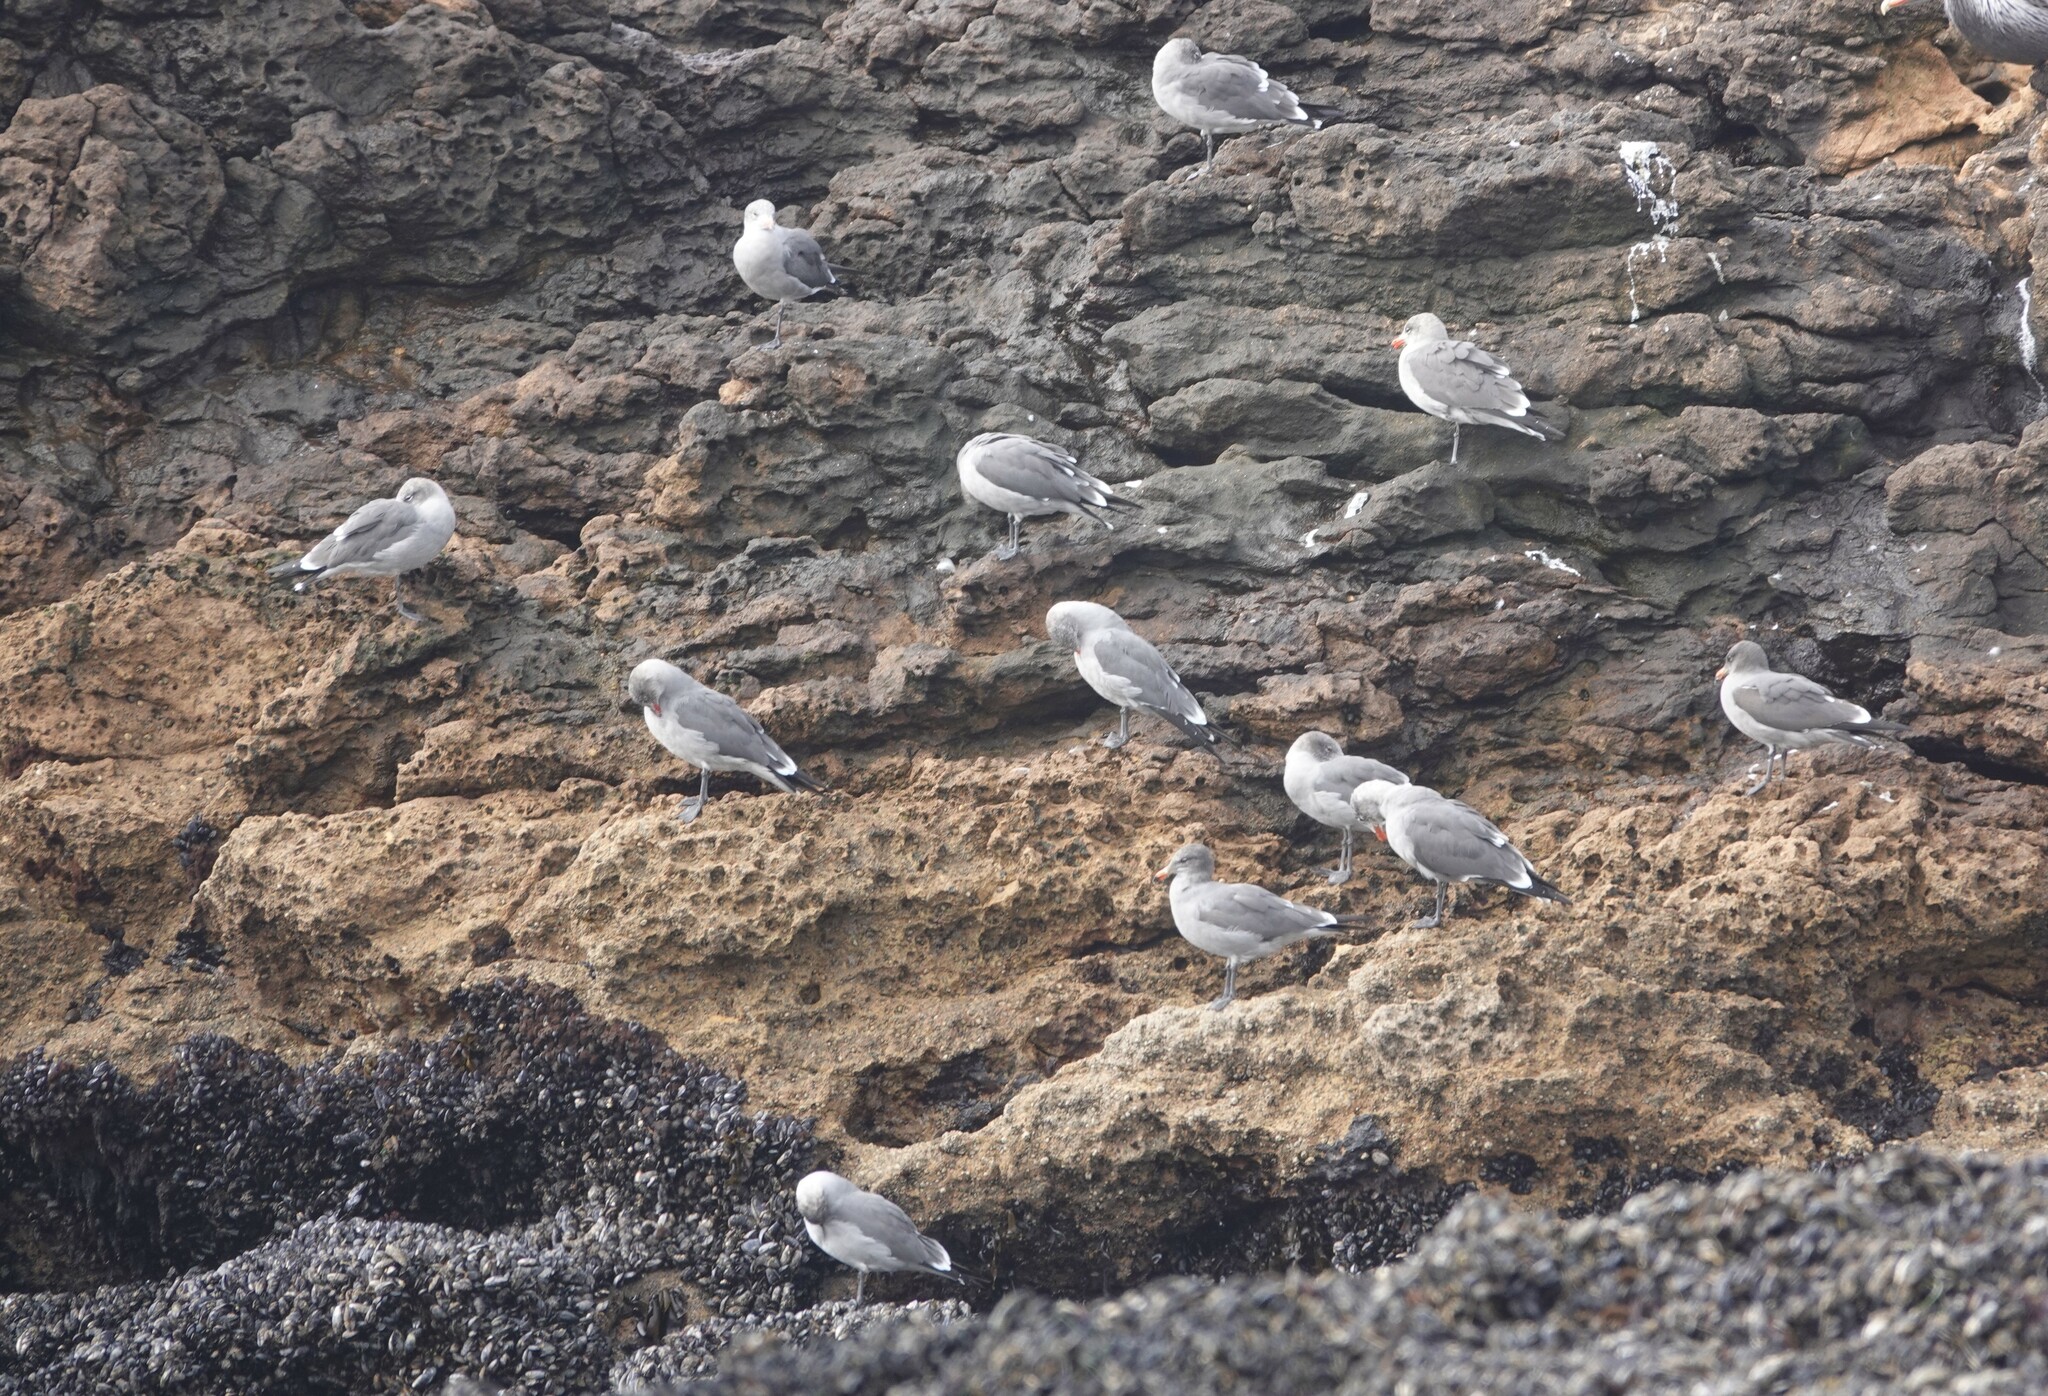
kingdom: Animalia
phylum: Chordata
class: Aves
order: Charadriiformes
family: Laridae
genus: Larus
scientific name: Larus heermanni
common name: Heermann's gull
